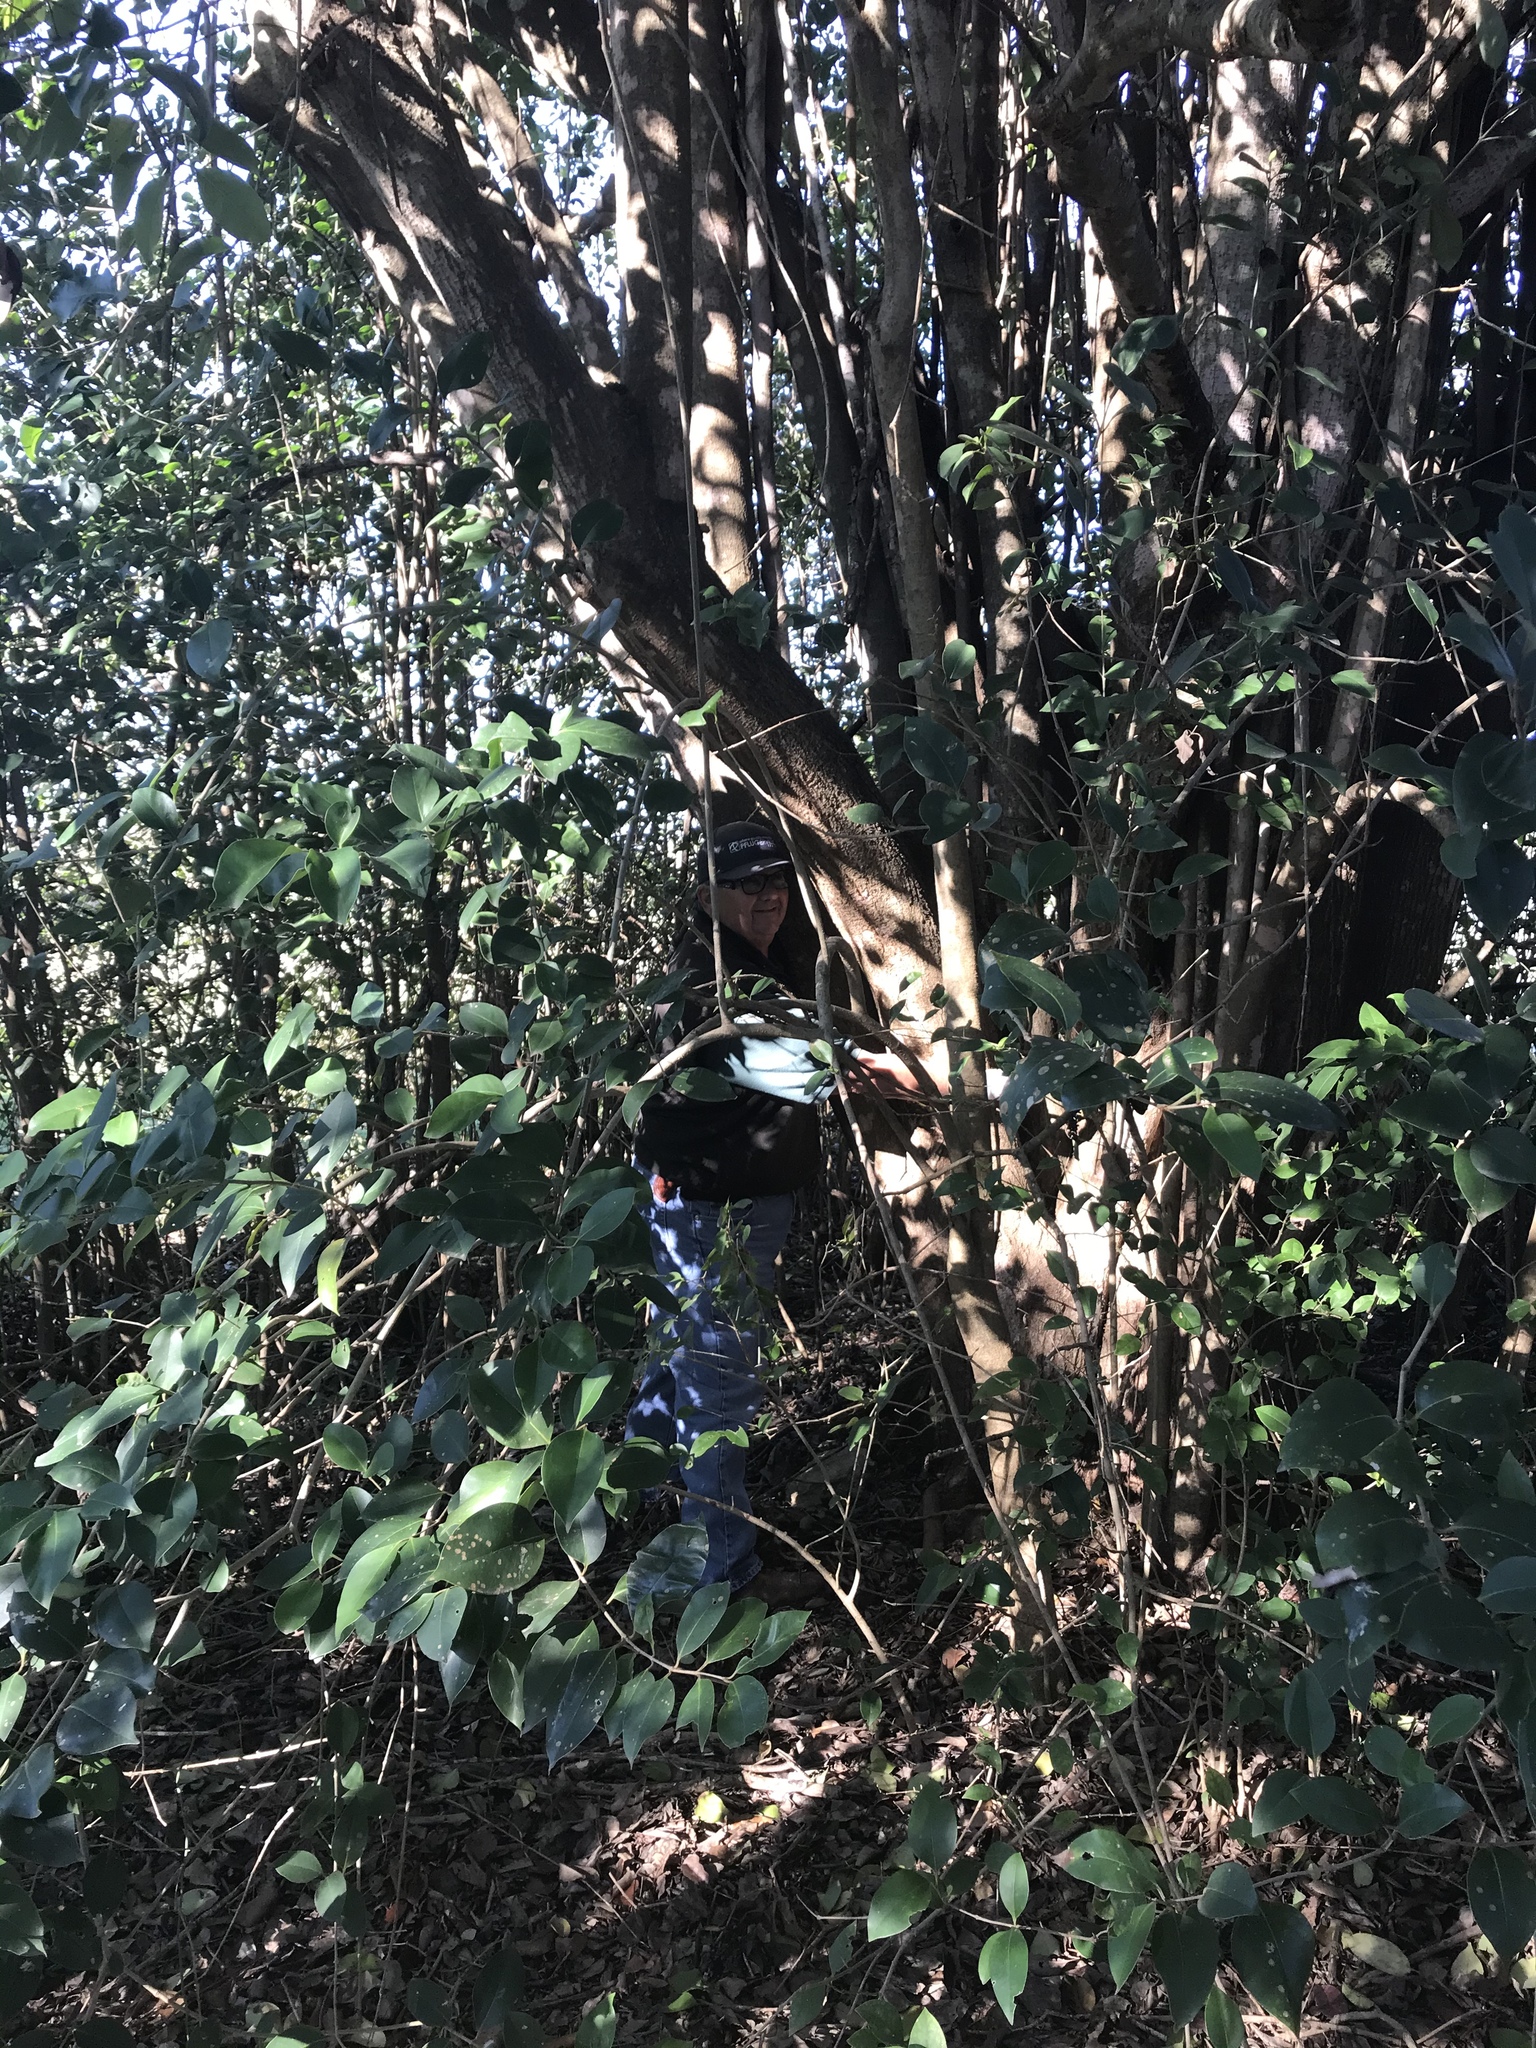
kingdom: Plantae
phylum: Tracheophyta
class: Magnoliopsida
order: Lamiales
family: Oleaceae
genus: Ligustrum
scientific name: Ligustrum lucidum
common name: Glossy privet
